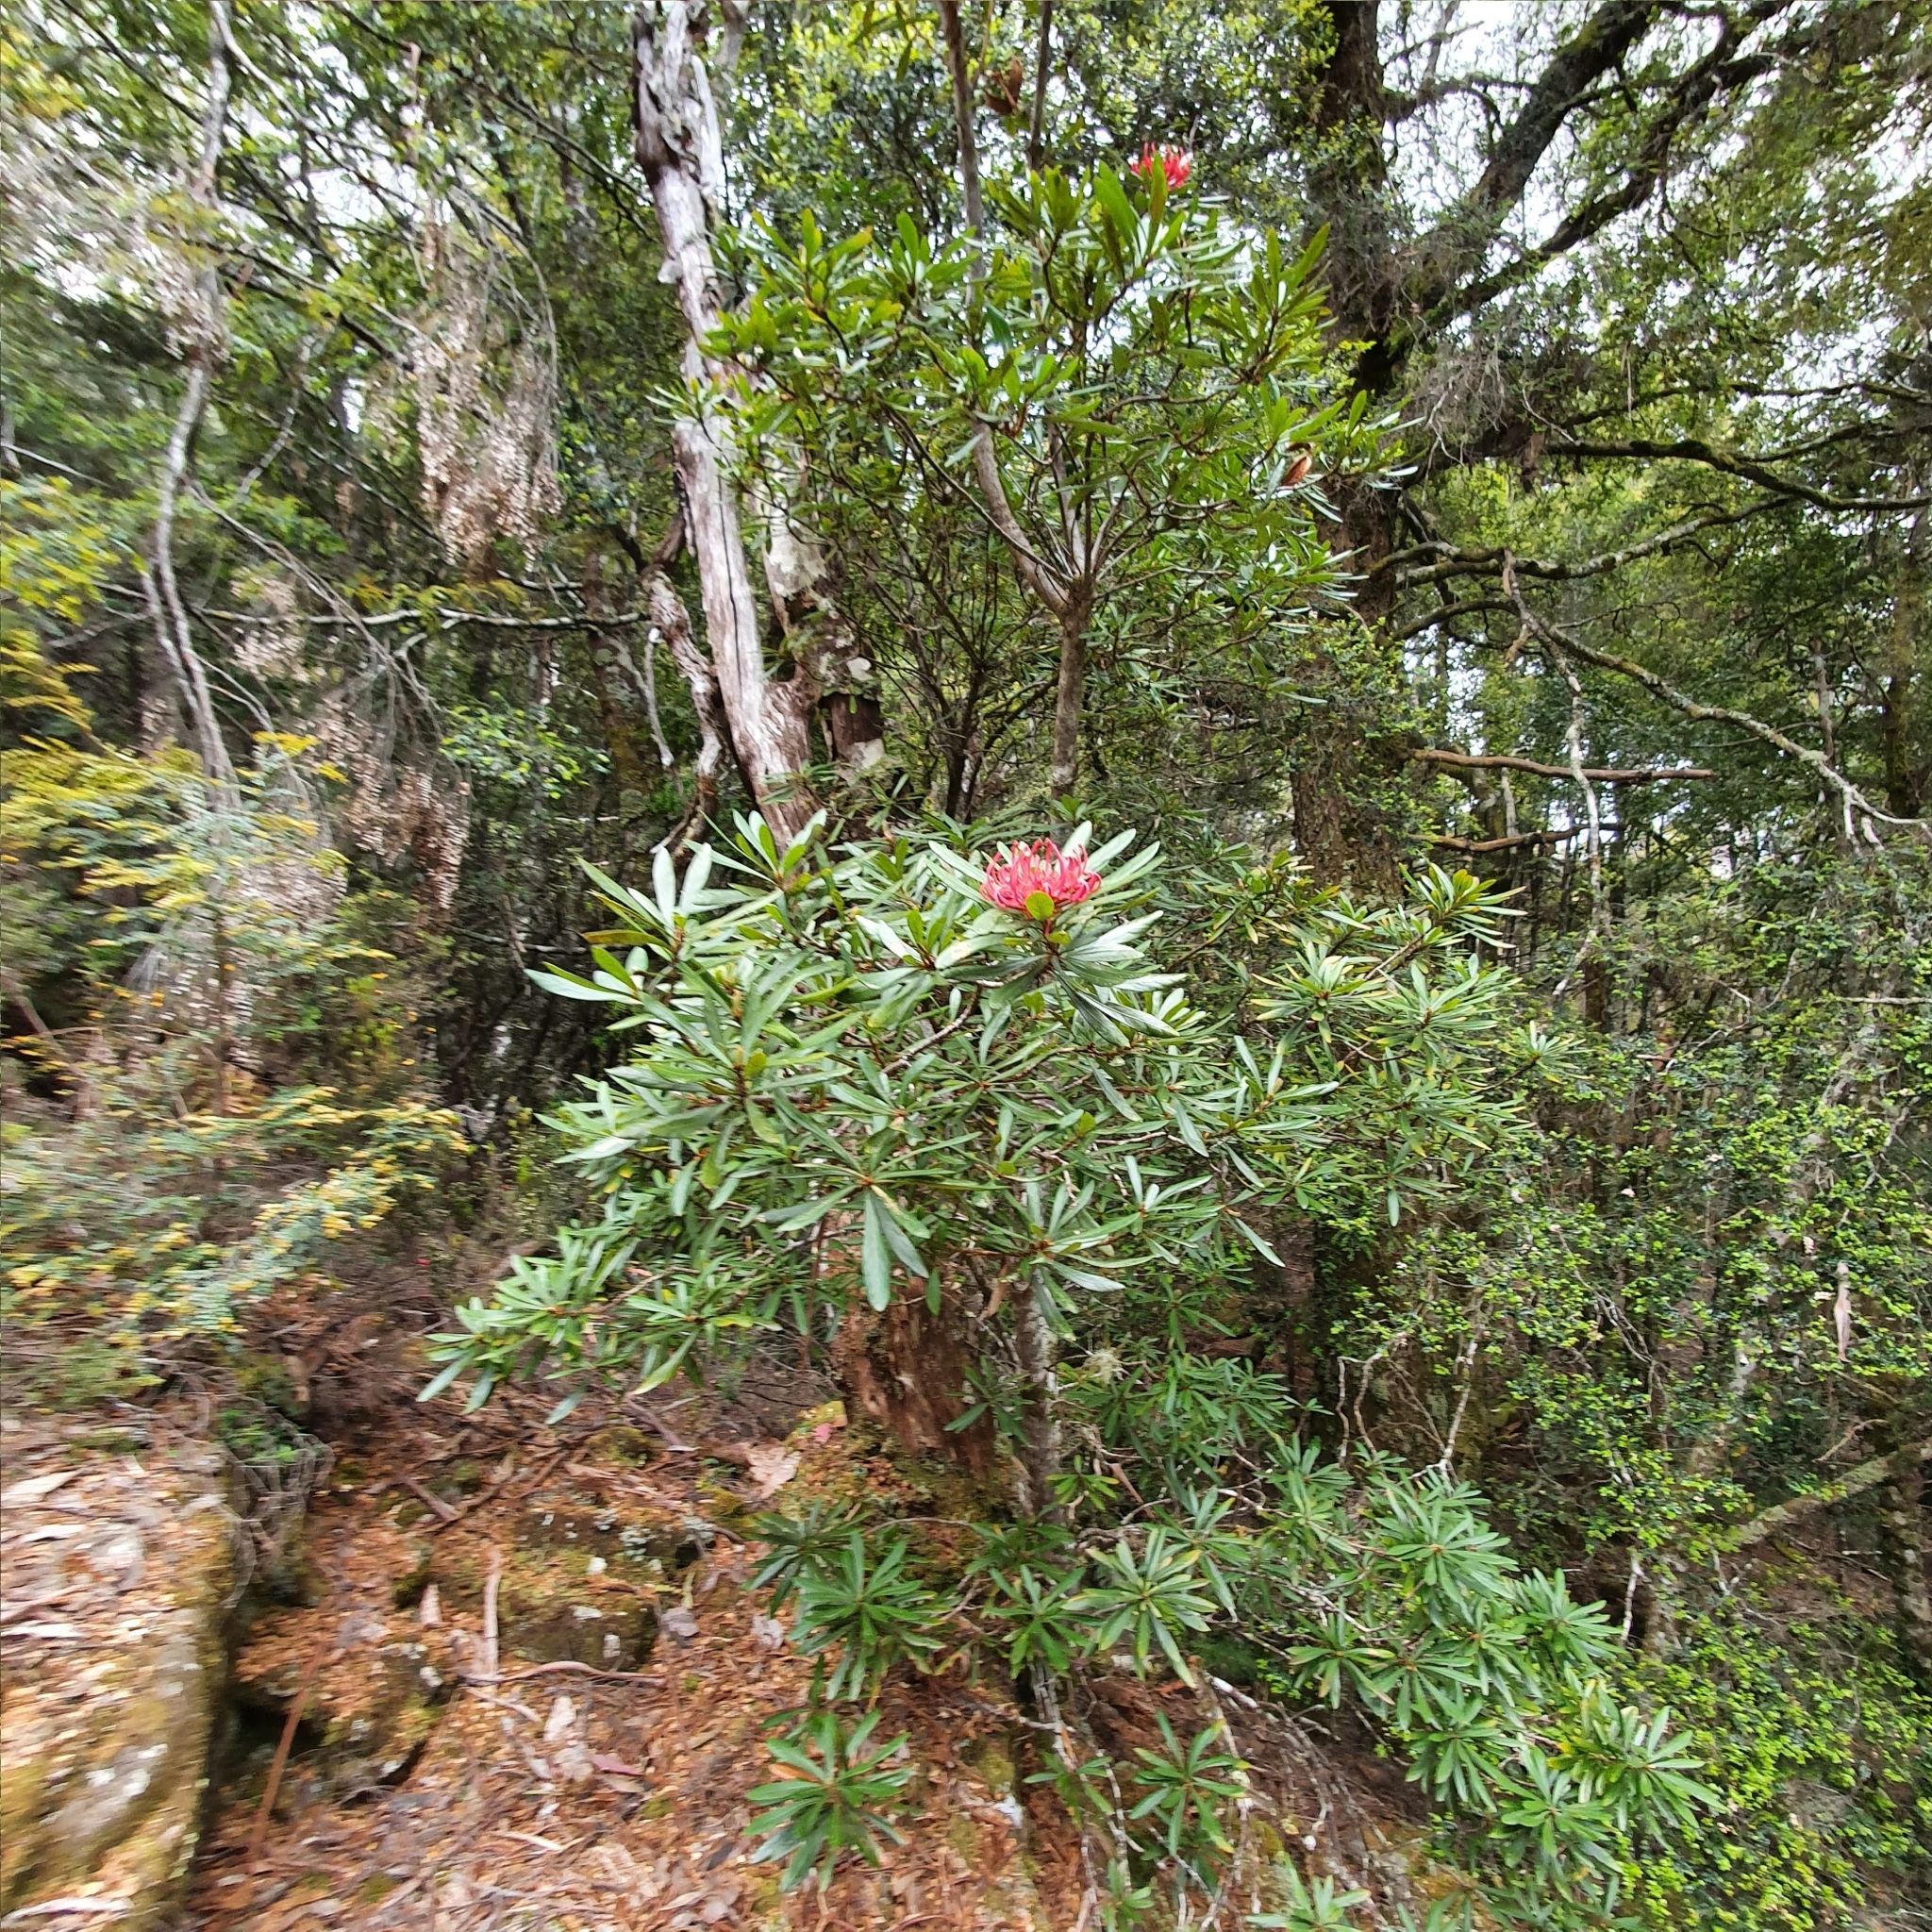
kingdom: Plantae
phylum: Tracheophyta
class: Magnoliopsida
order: Proteales
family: Proteaceae
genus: Telopea
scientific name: Telopea truncata
